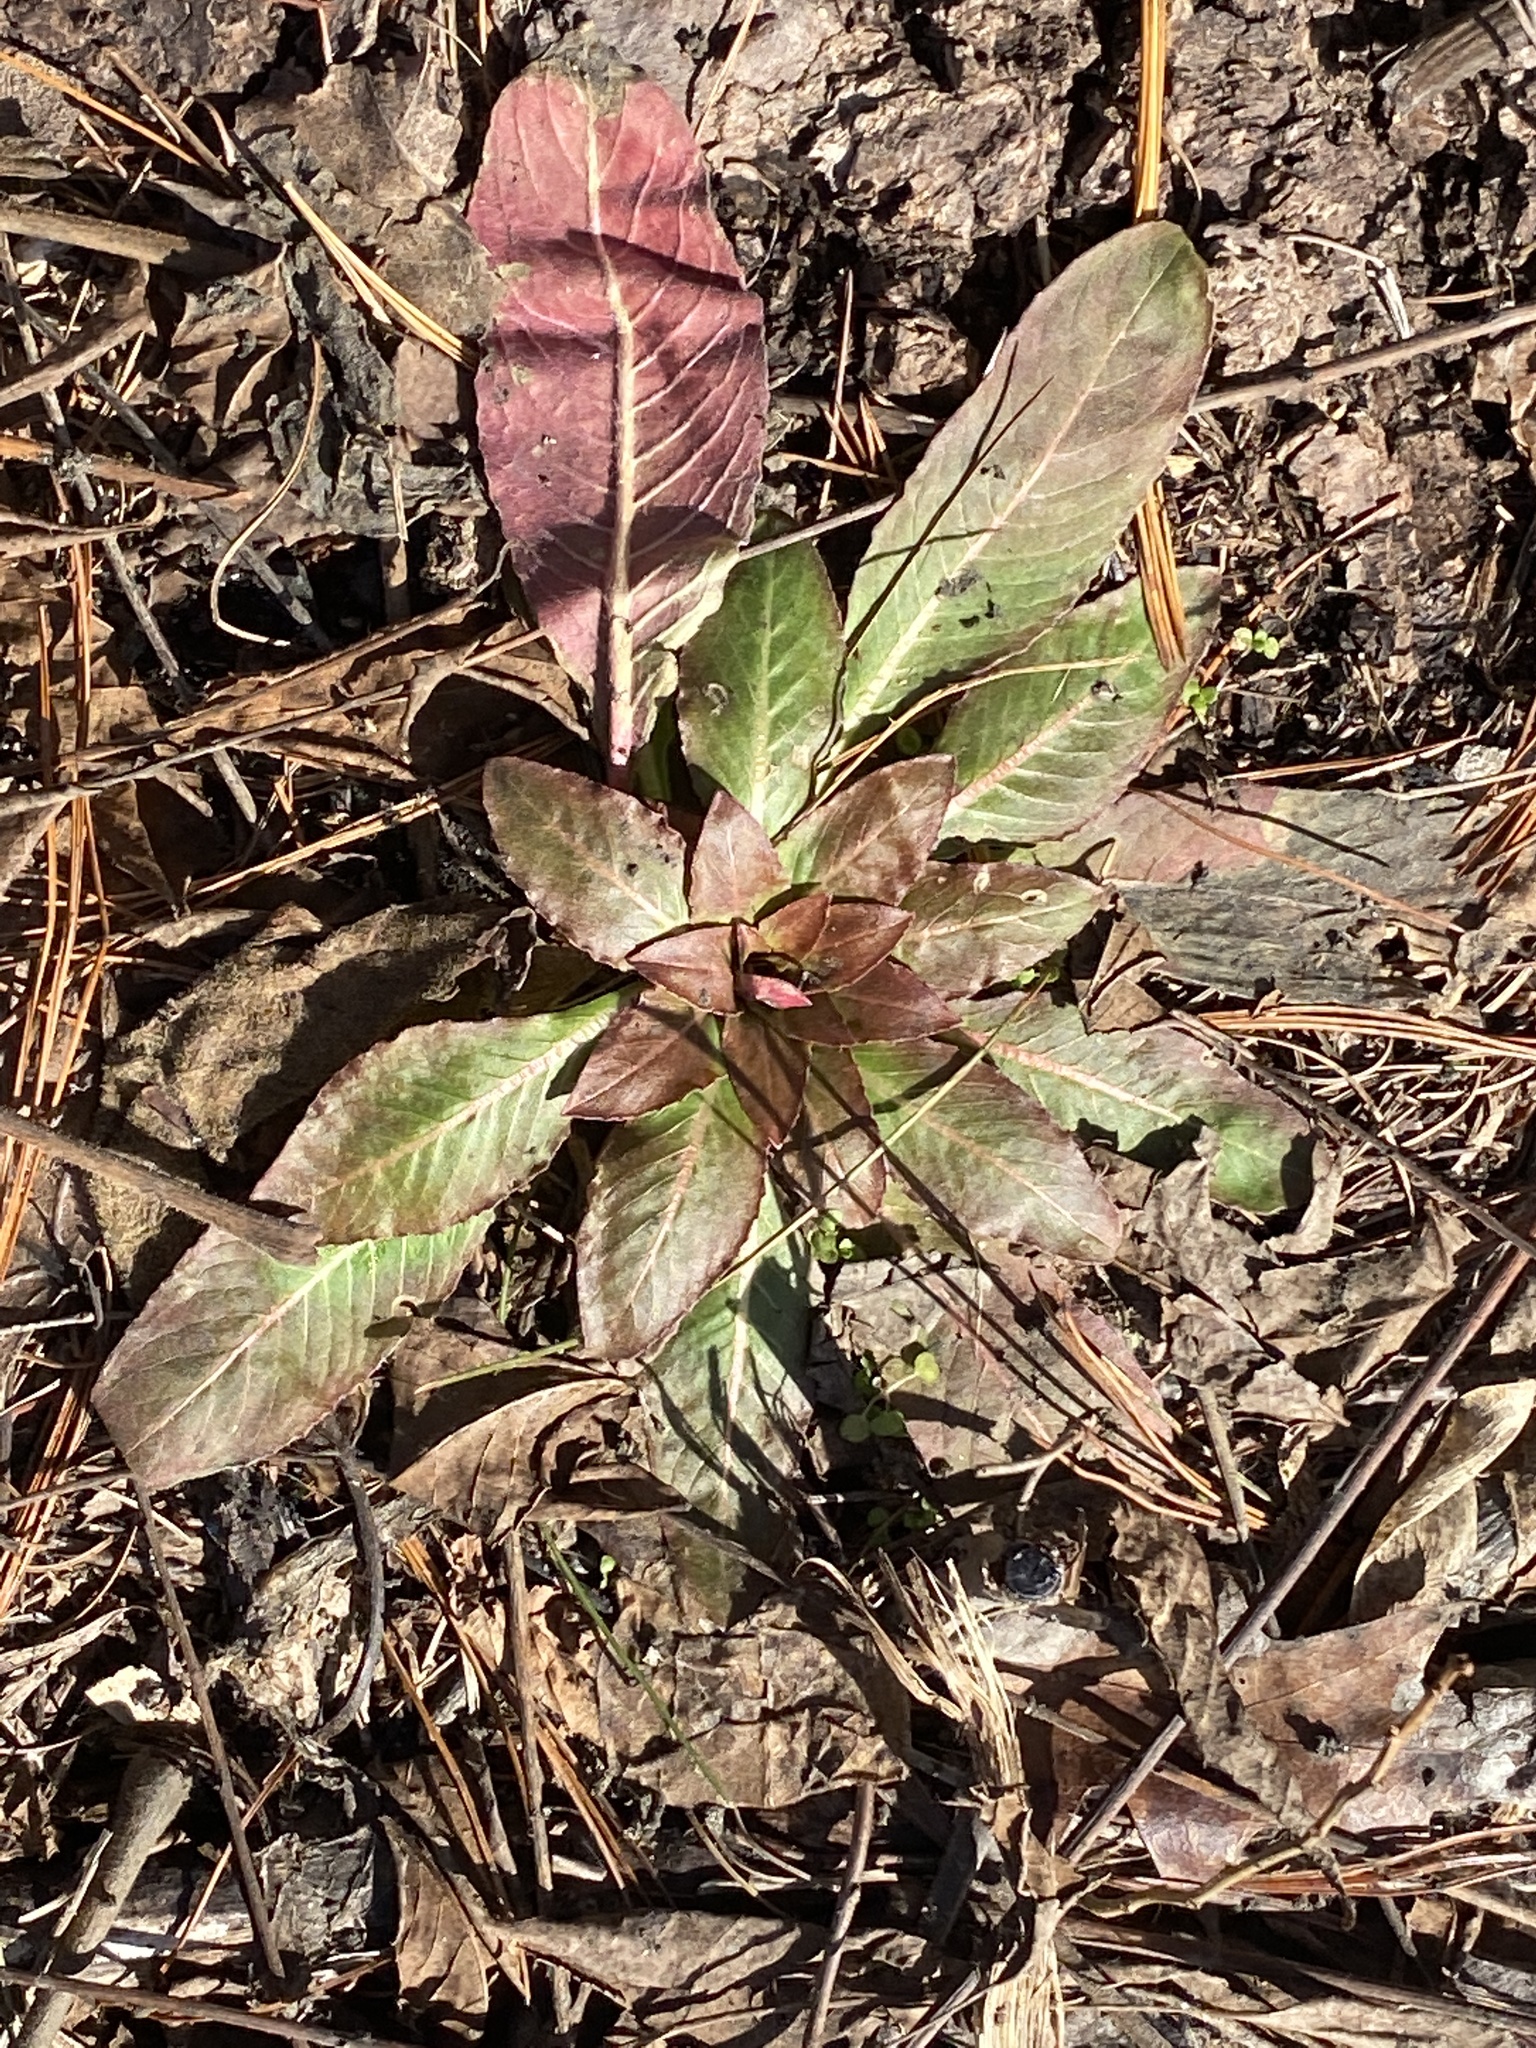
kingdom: Plantae
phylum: Tracheophyta
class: Magnoliopsida
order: Myrtales
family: Onagraceae
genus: Oenothera
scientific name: Oenothera biennis
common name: Common evening-primrose
